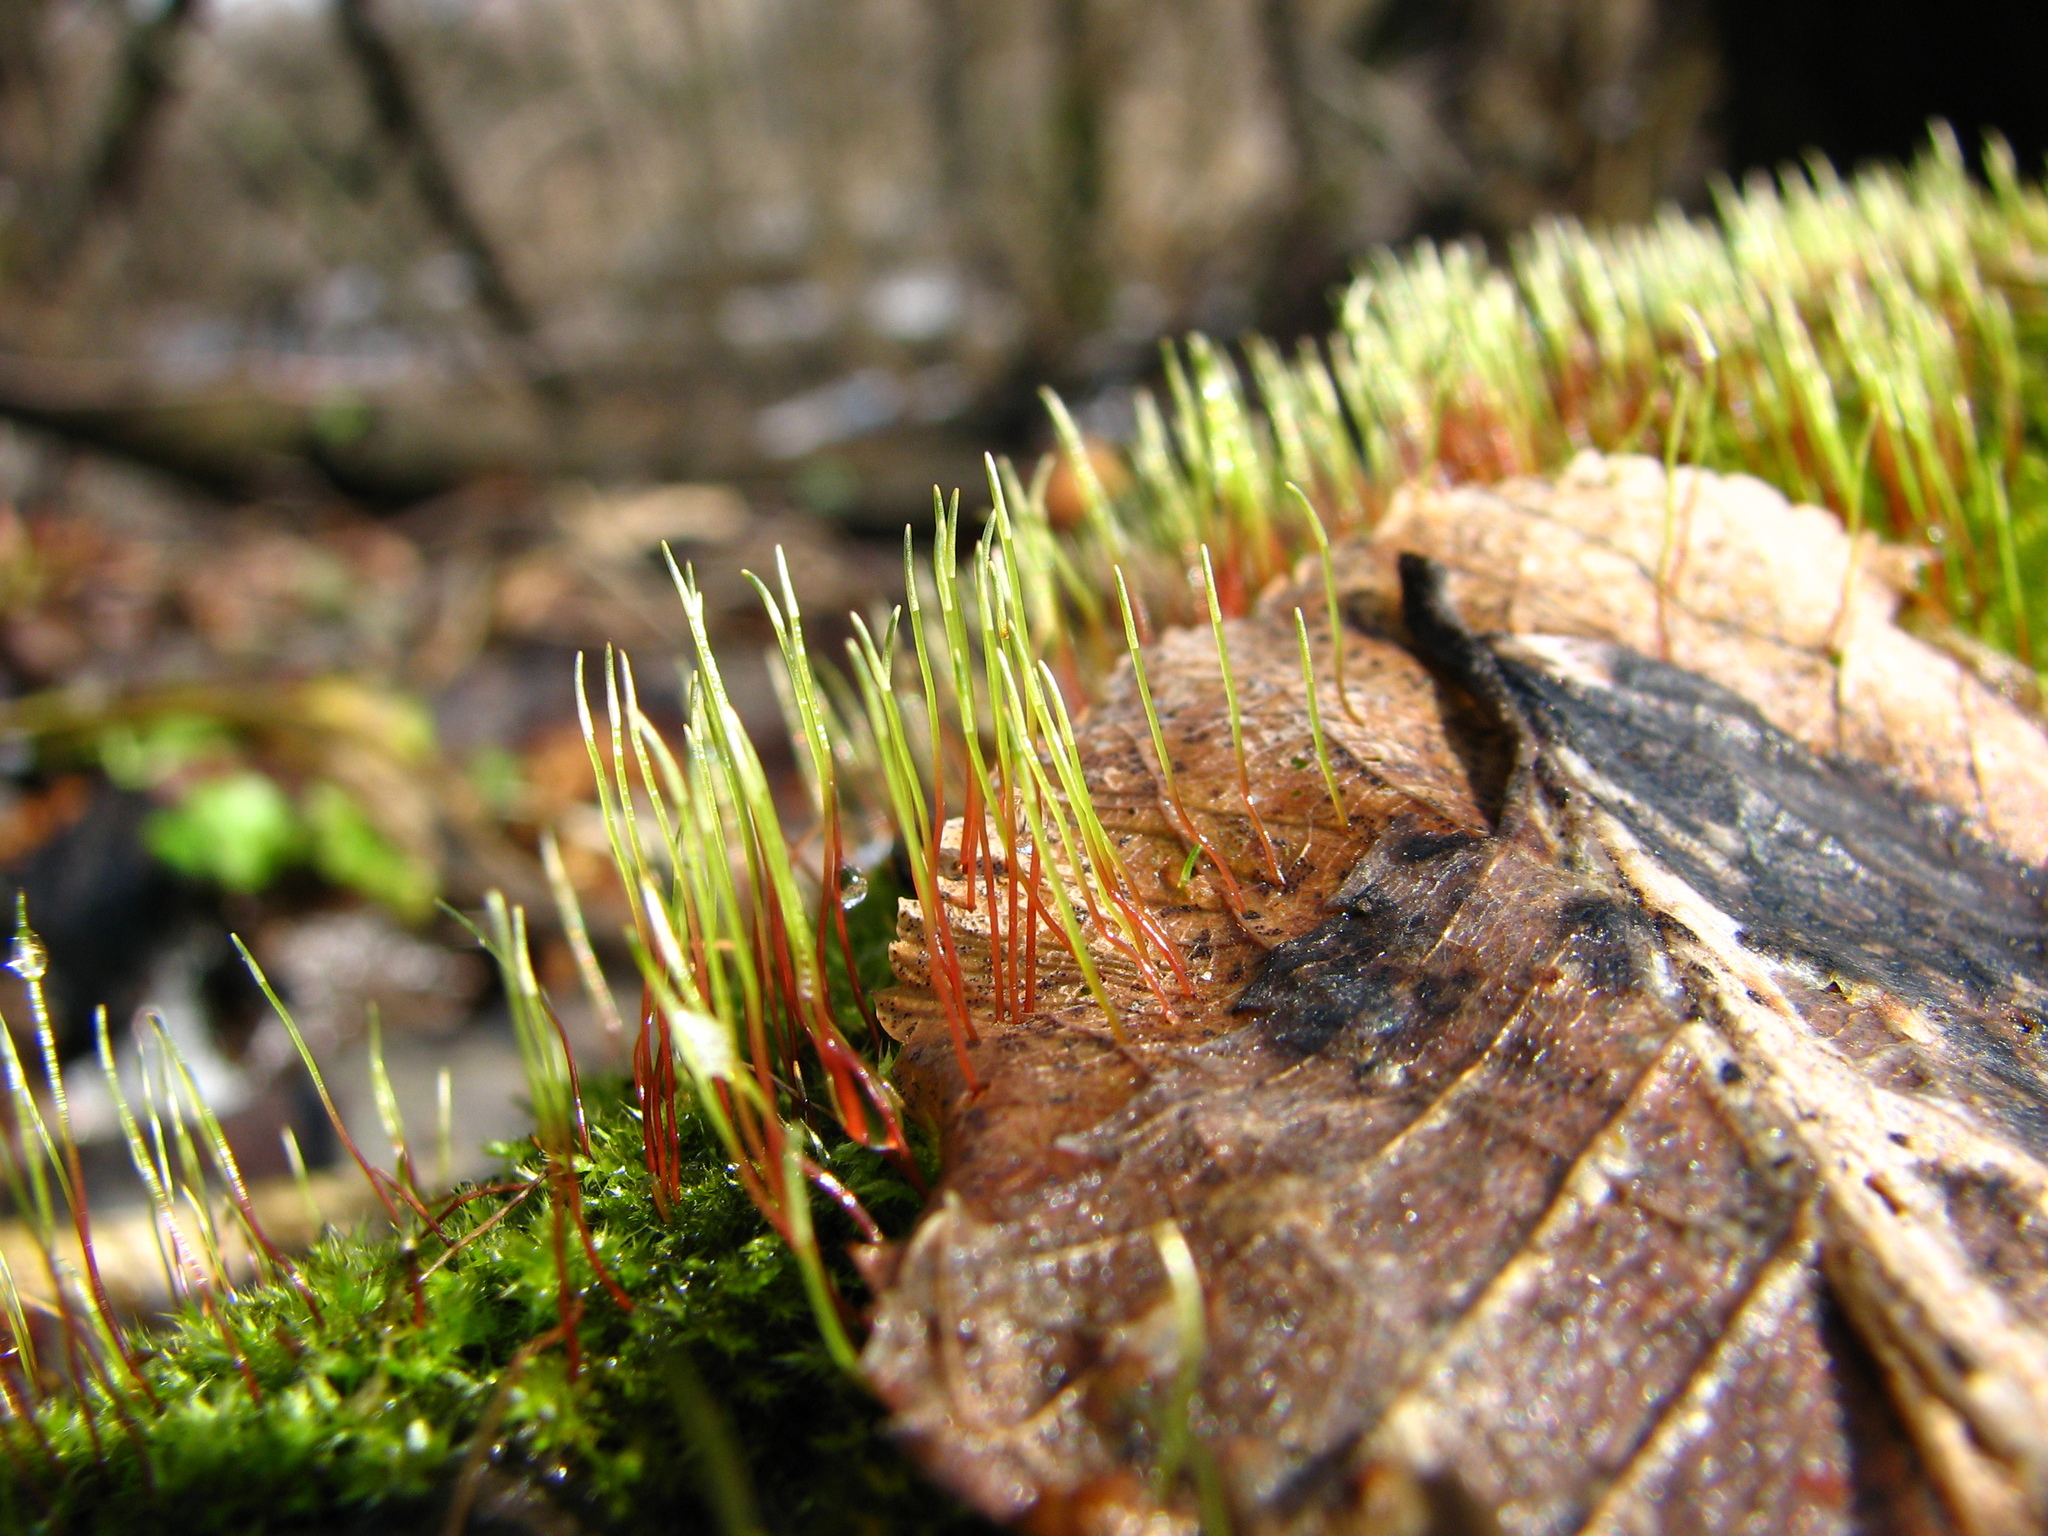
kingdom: Plantae
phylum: Bryophyta
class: Bryopsida
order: Hypnales
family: Amblystegiaceae
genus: Amblystegium
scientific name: Amblystegium serpens
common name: Jurkatzka's feather moss
